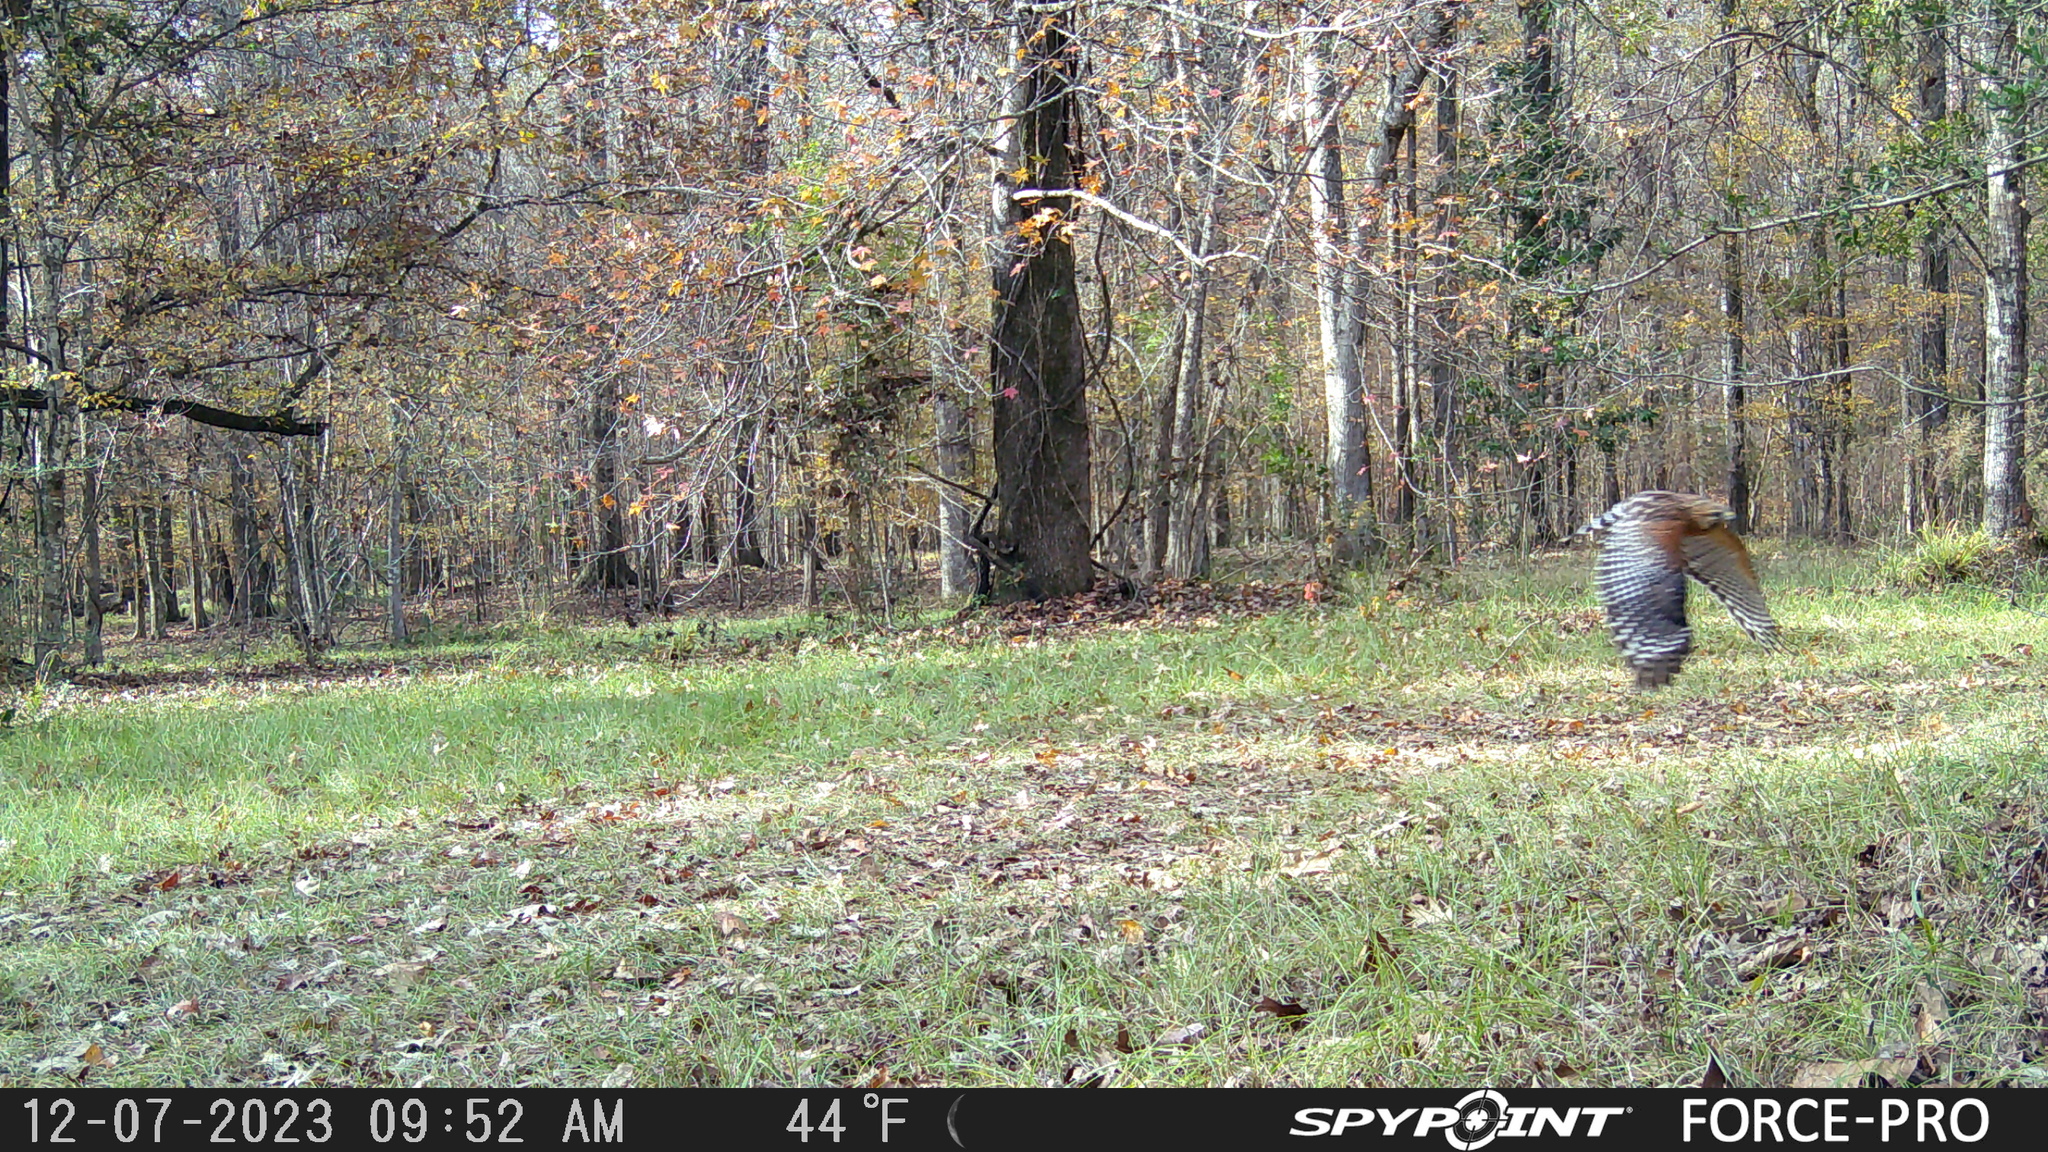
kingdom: Animalia
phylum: Chordata
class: Aves
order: Accipitriformes
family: Accipitridae
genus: Buteo
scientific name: Buteo lineatus
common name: Red-shouldered hawk
